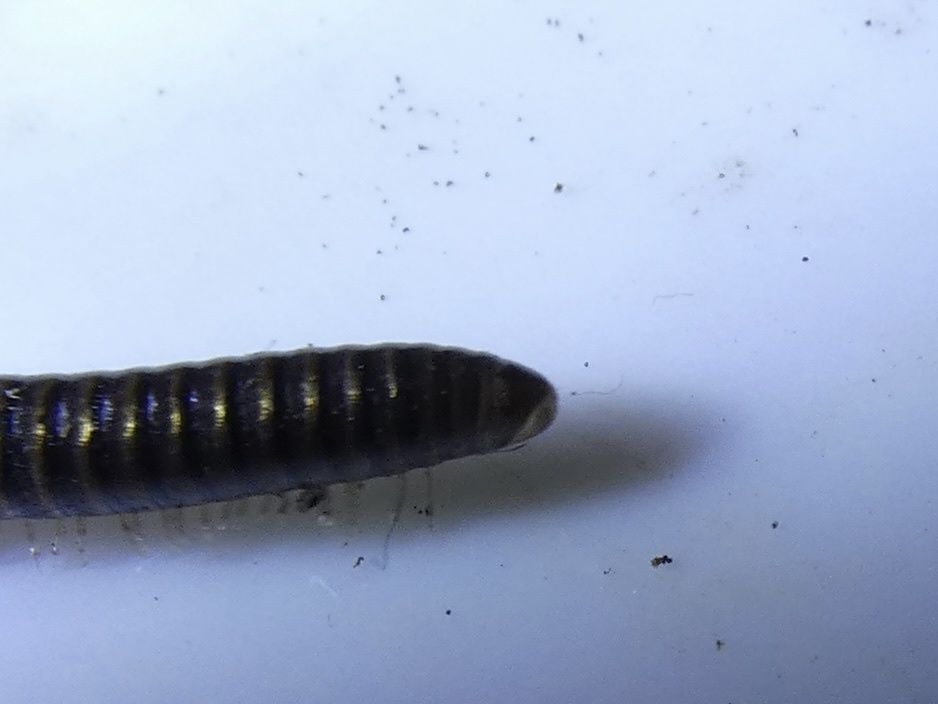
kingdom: Animalia
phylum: Arthropoda
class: Diplopoda
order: Julida
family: Julidae
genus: Cylindroiulus
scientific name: Cylindroiulus caeruleocinctus
